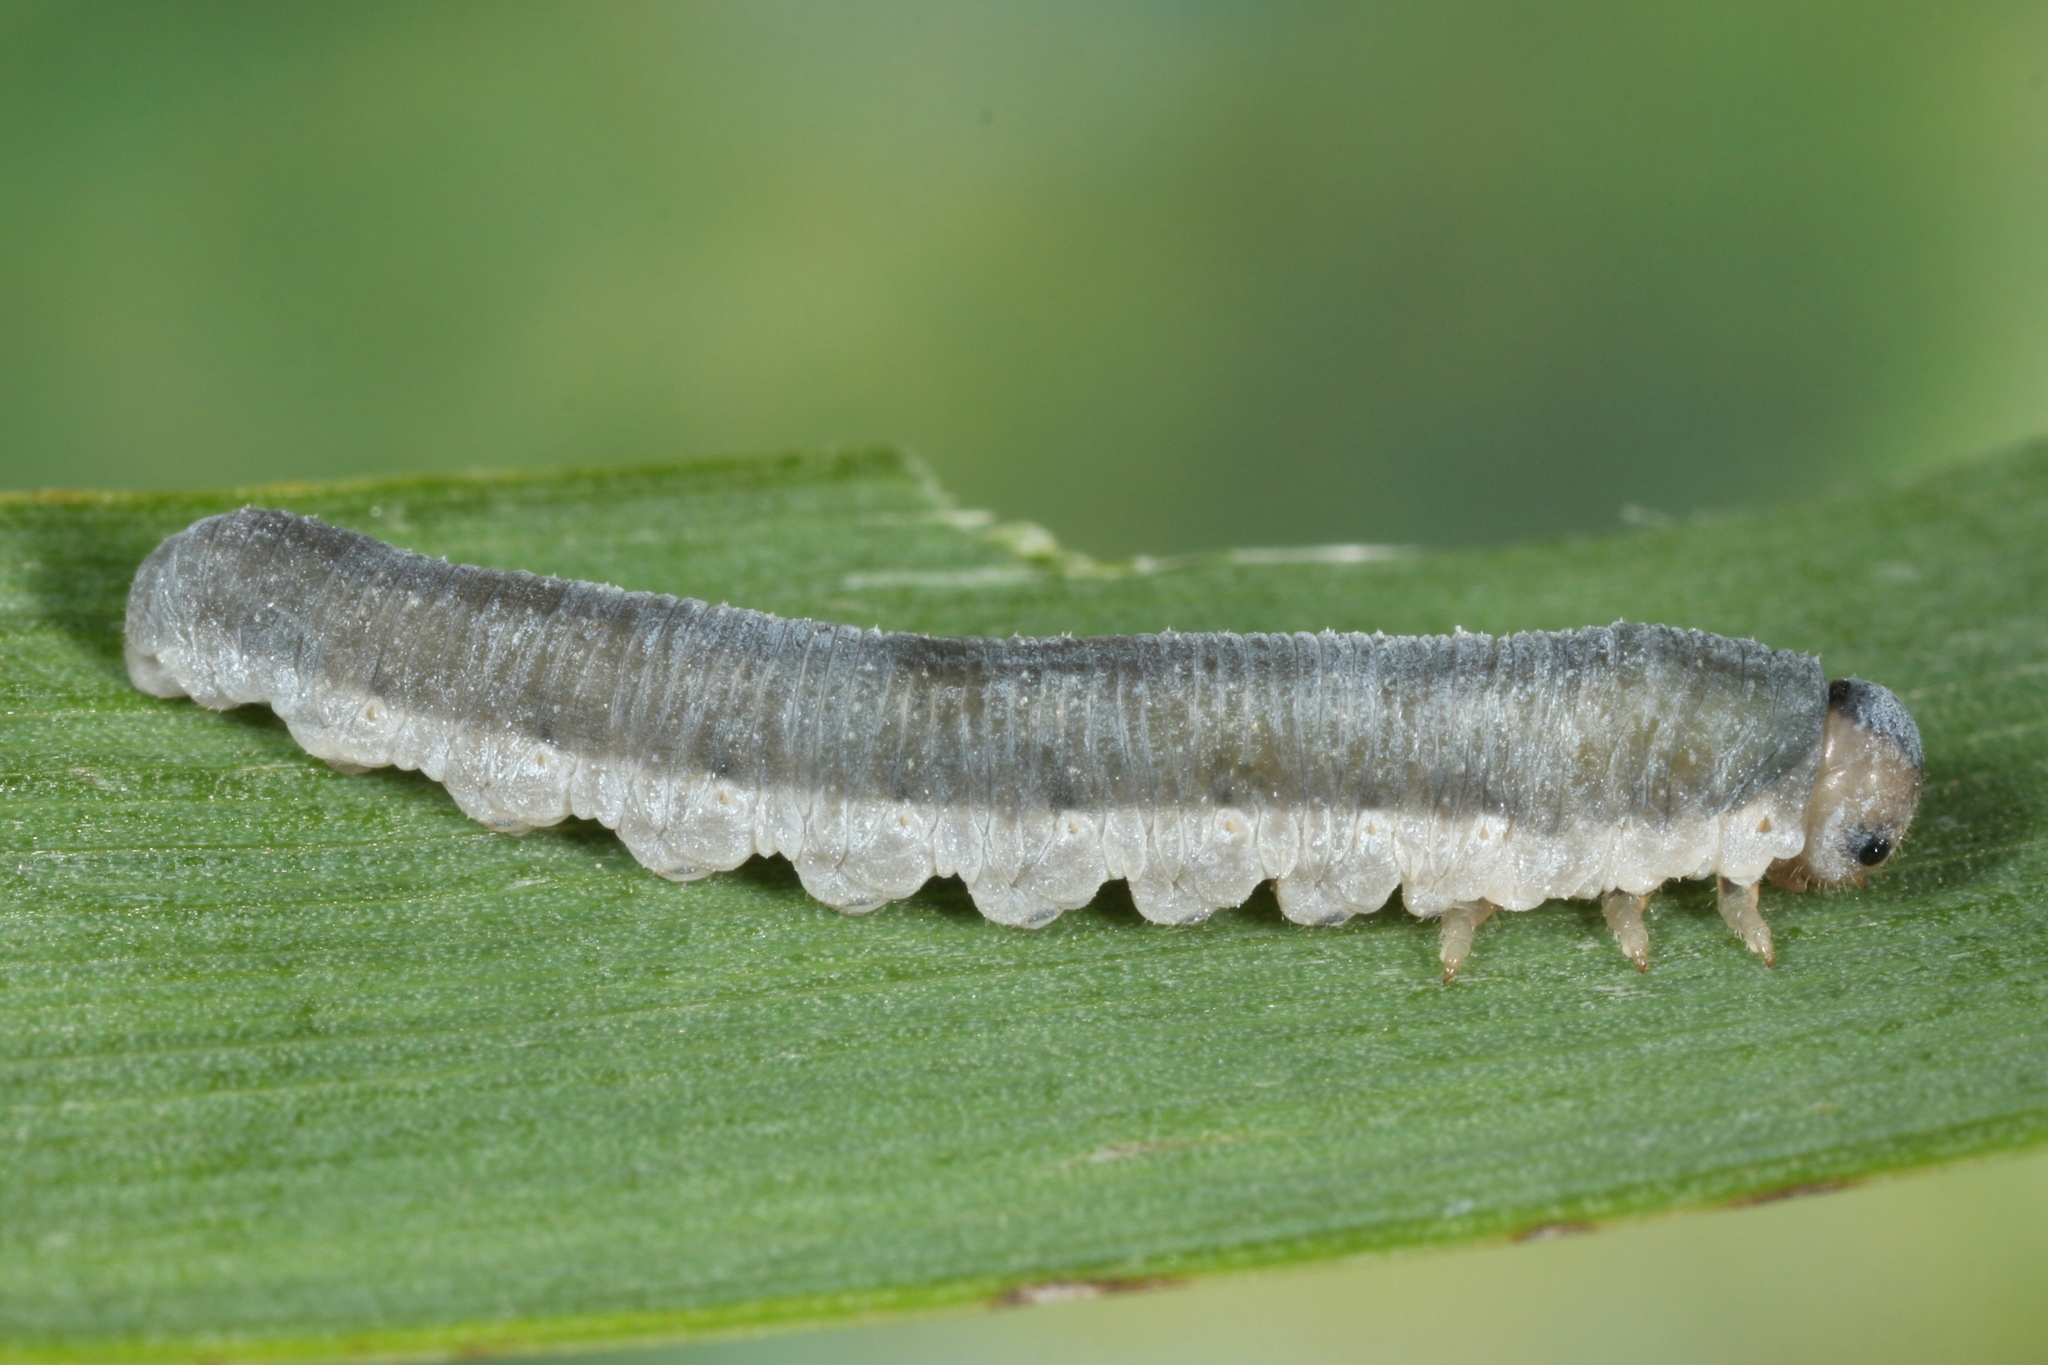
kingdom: Animalia
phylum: Arthropoda
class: Insecta
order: Hymenoptera
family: Tenthredinidae
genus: Monostegia
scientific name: Monostegia abdominalis
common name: Tenthredid wasp
